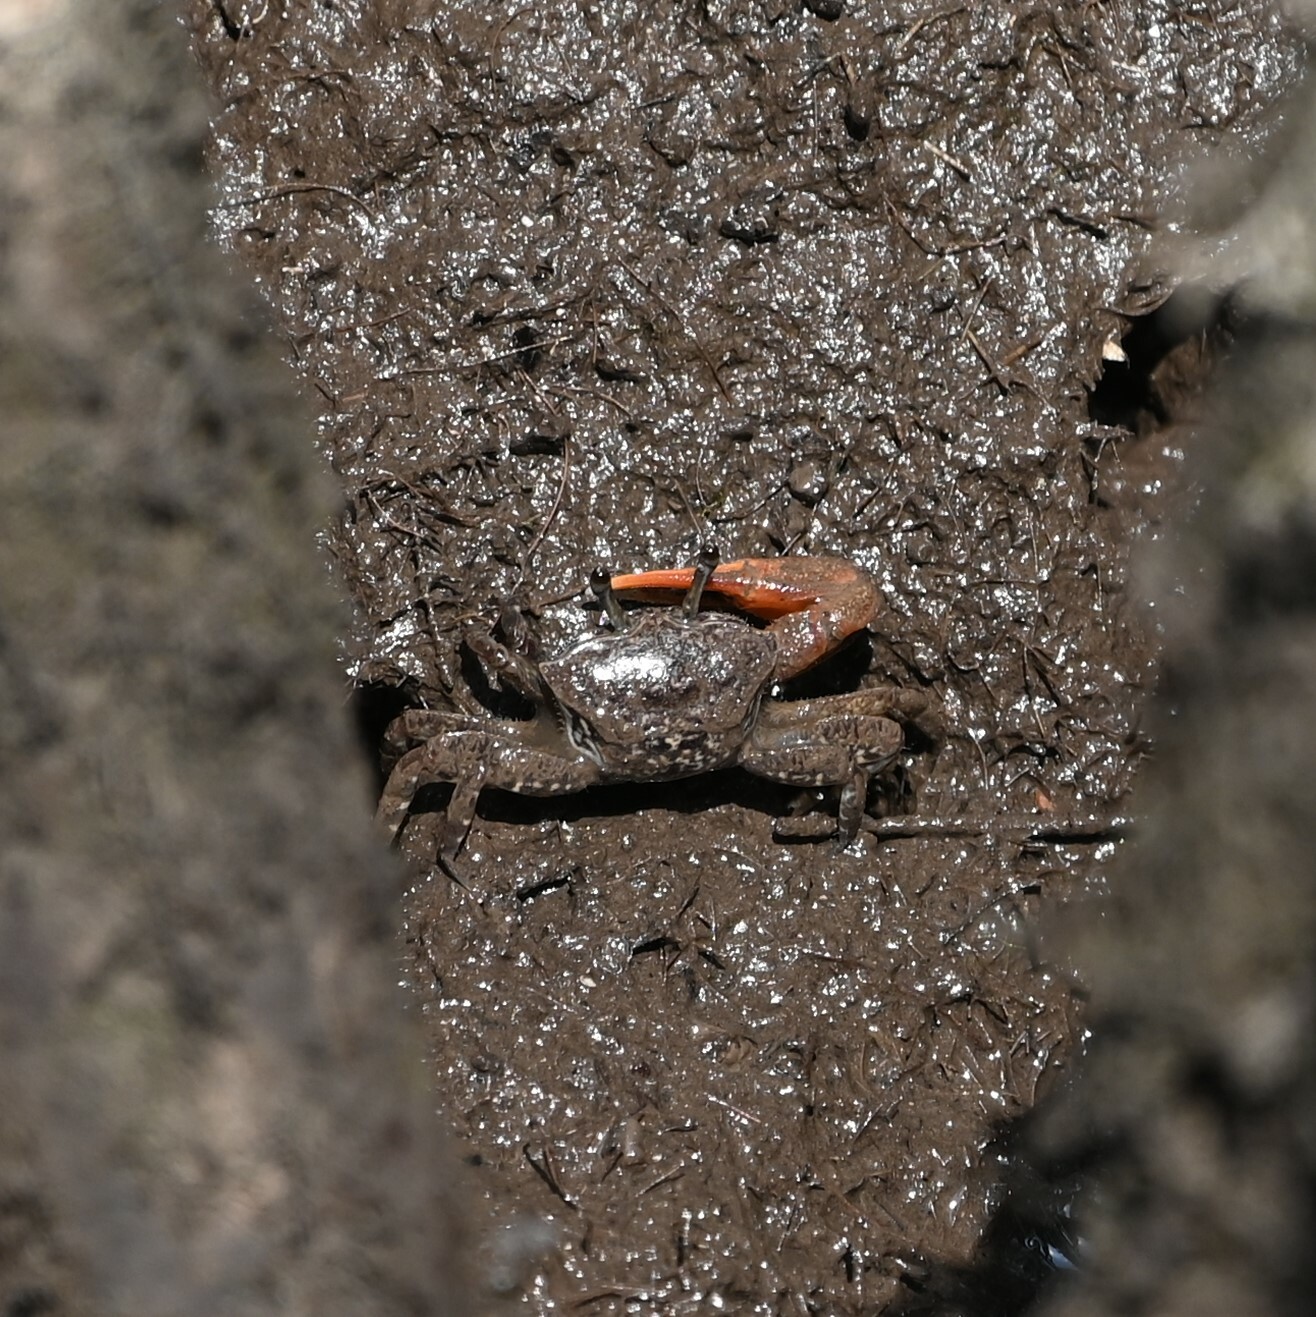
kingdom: Animalia
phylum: Arthropoda
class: Malacostraca
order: Decapoda
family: Sesarmidae
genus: Aratus
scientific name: Aratus pisonii
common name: Mangrove crab
